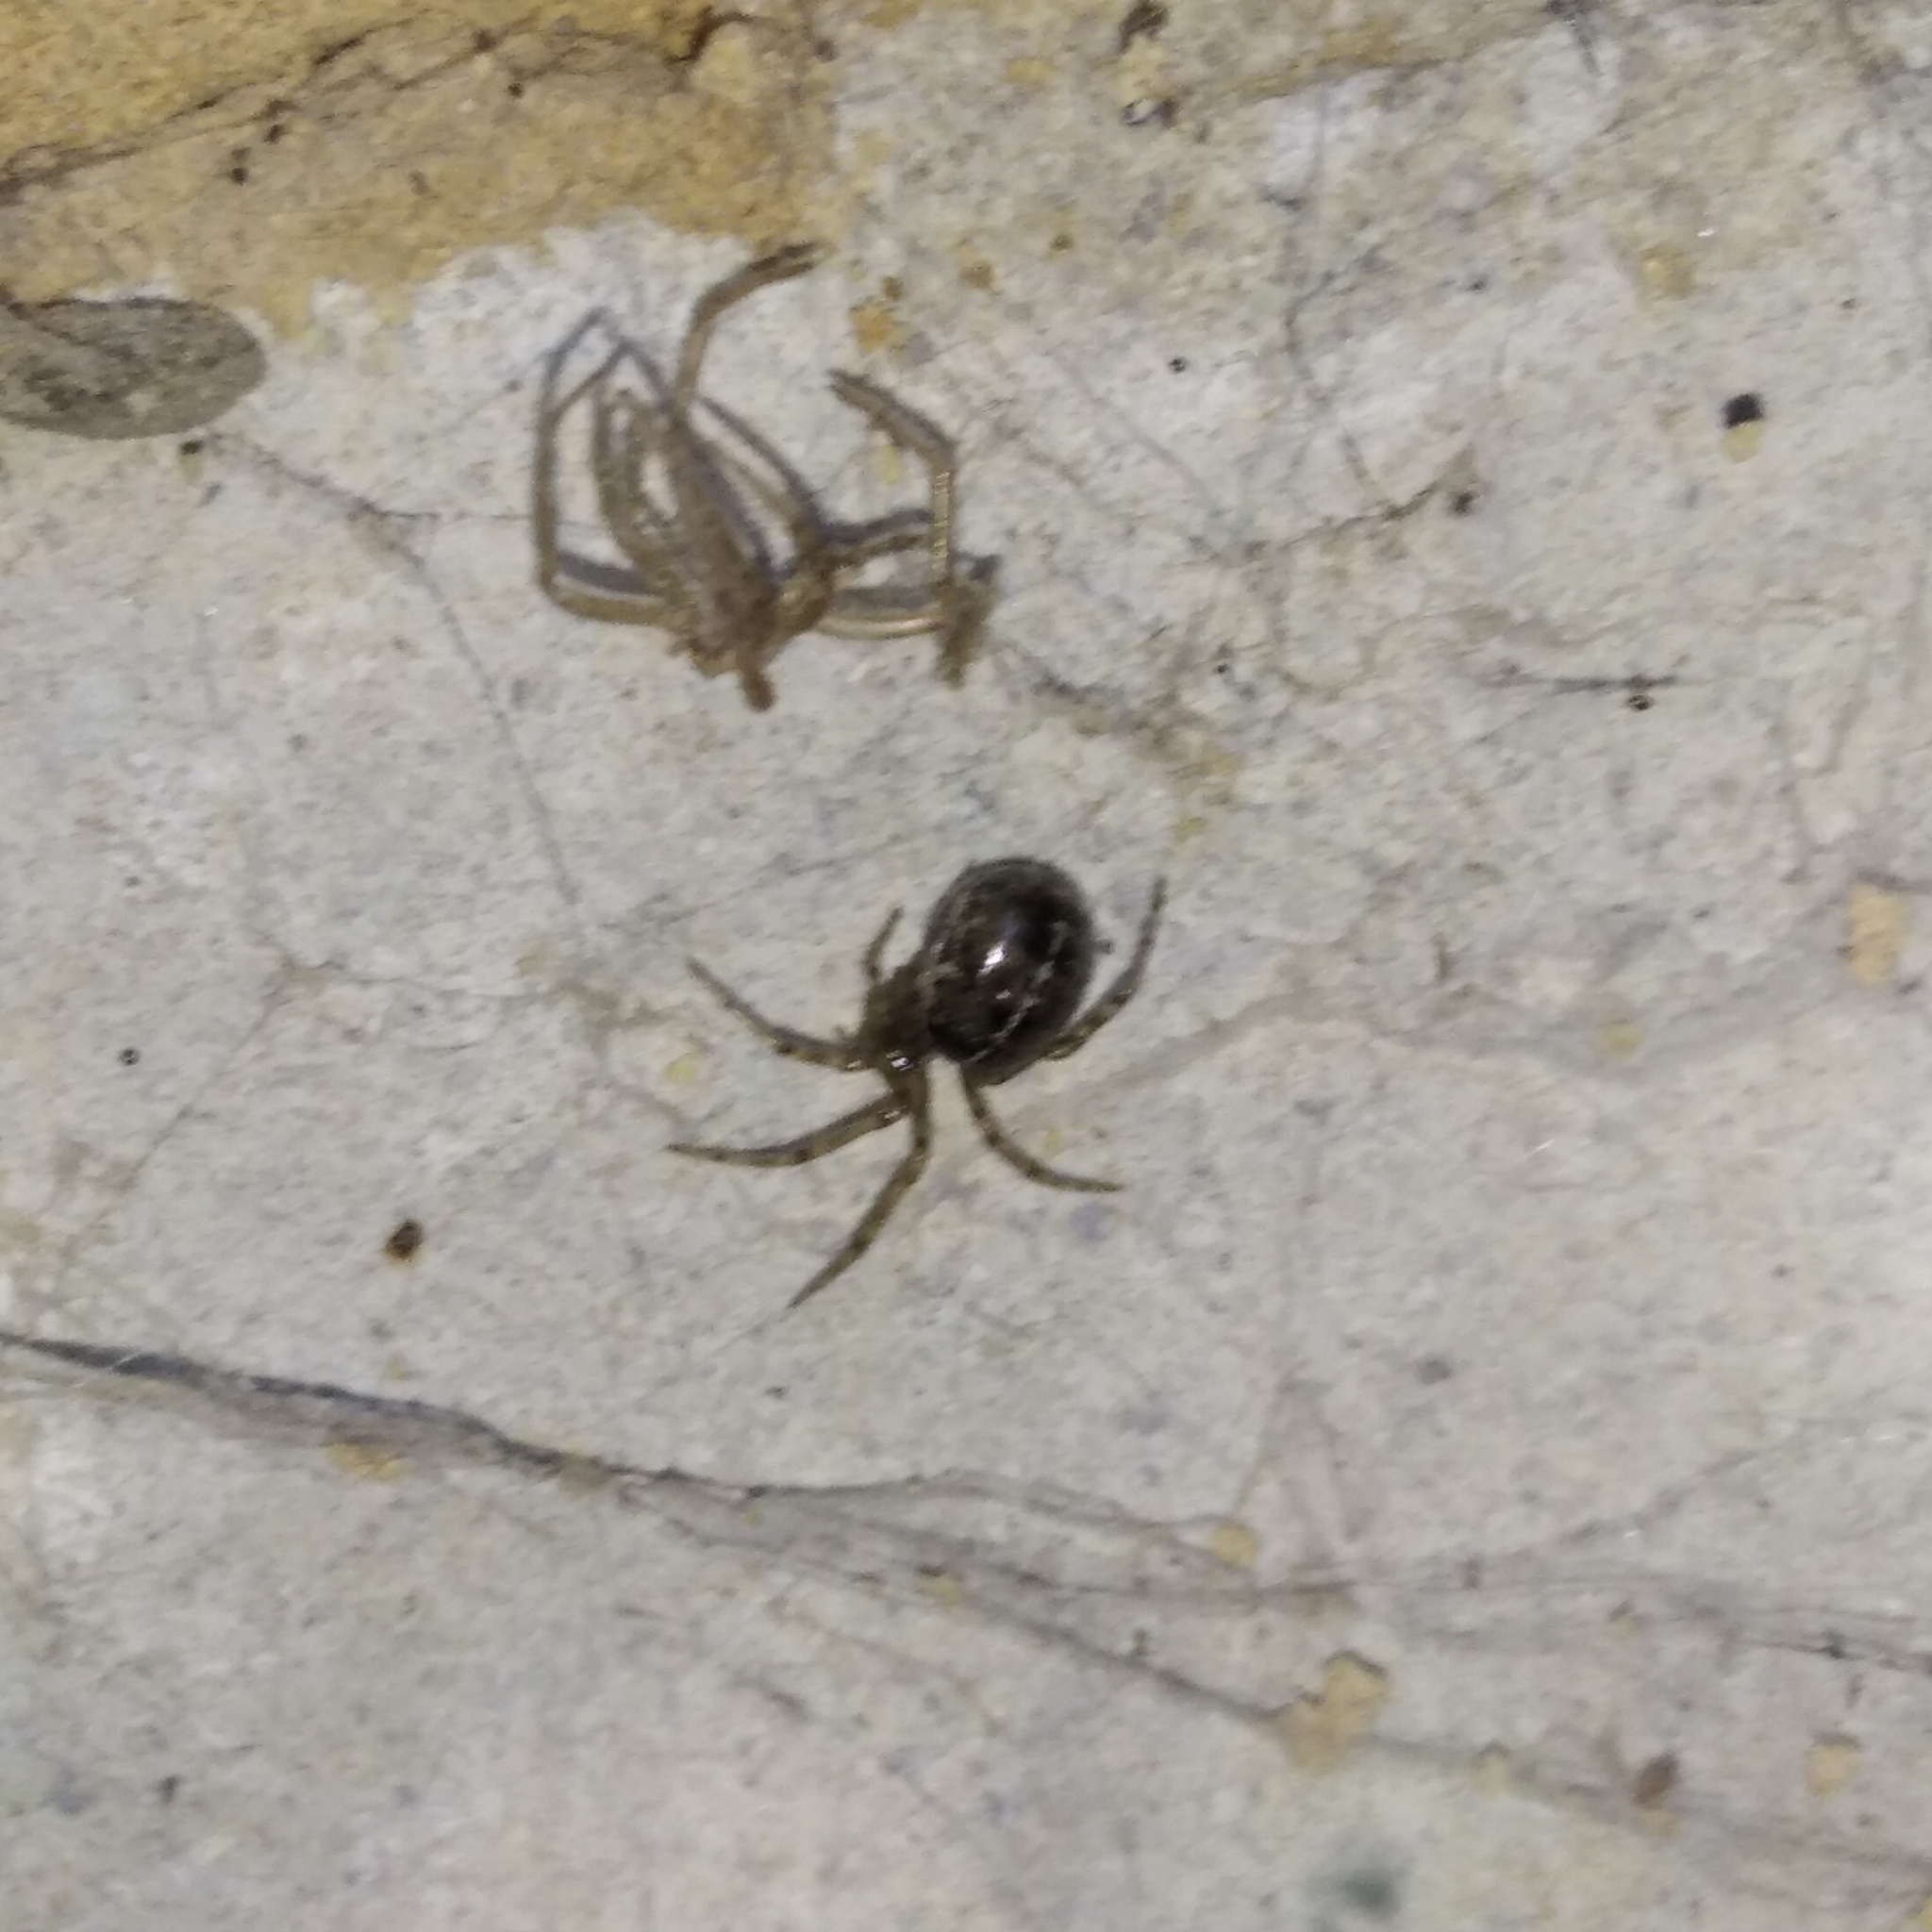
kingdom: Animalia
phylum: Arthropoda
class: Arachnida
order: Araneae
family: Theridiidae
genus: Steatoda
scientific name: Steatoda castanea
